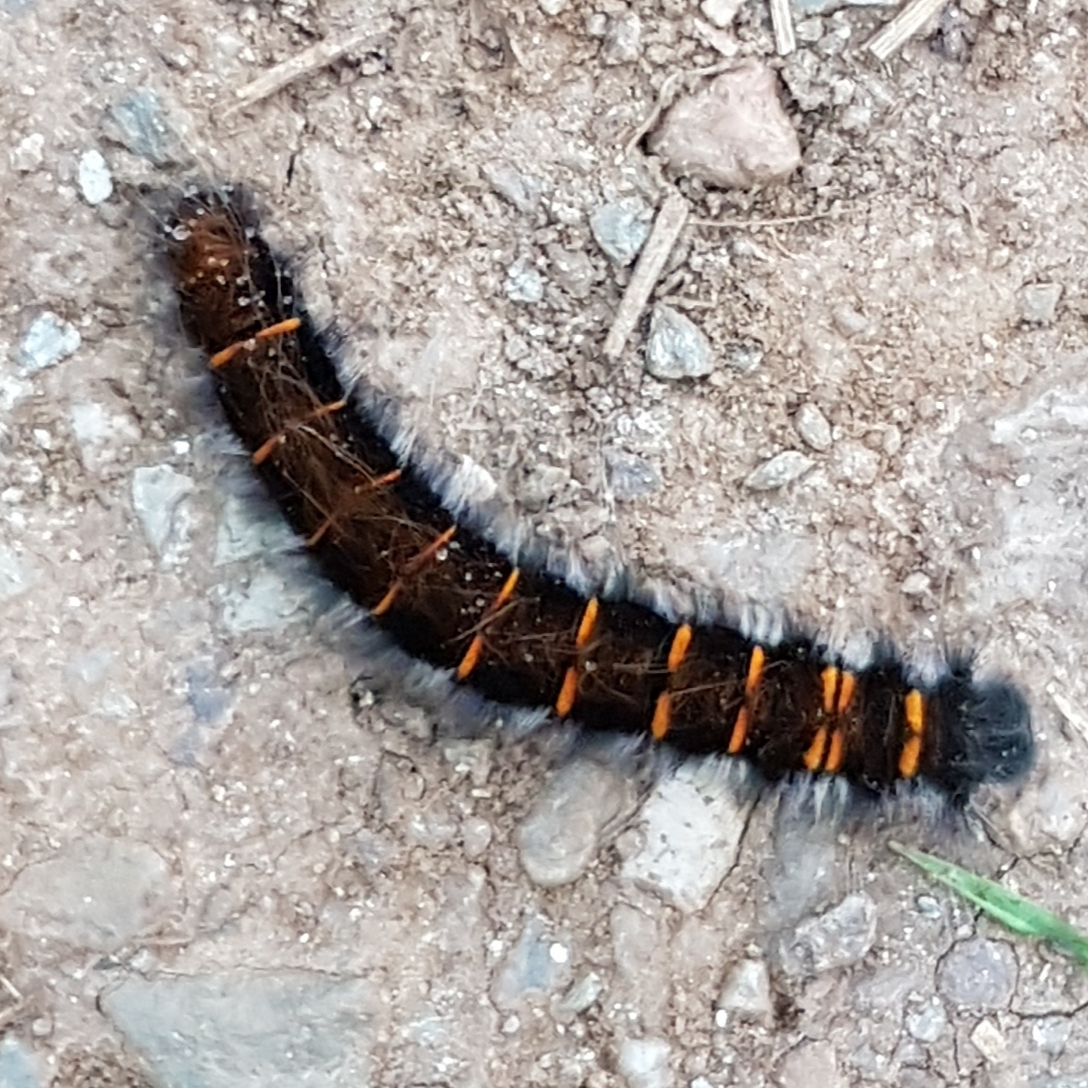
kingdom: Animalia
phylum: Arthropoda
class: Insecta
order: Lepidoptera
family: Lasiocampidae
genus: Macrothylacia
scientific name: Macrothylacia rubi
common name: Fox moth
